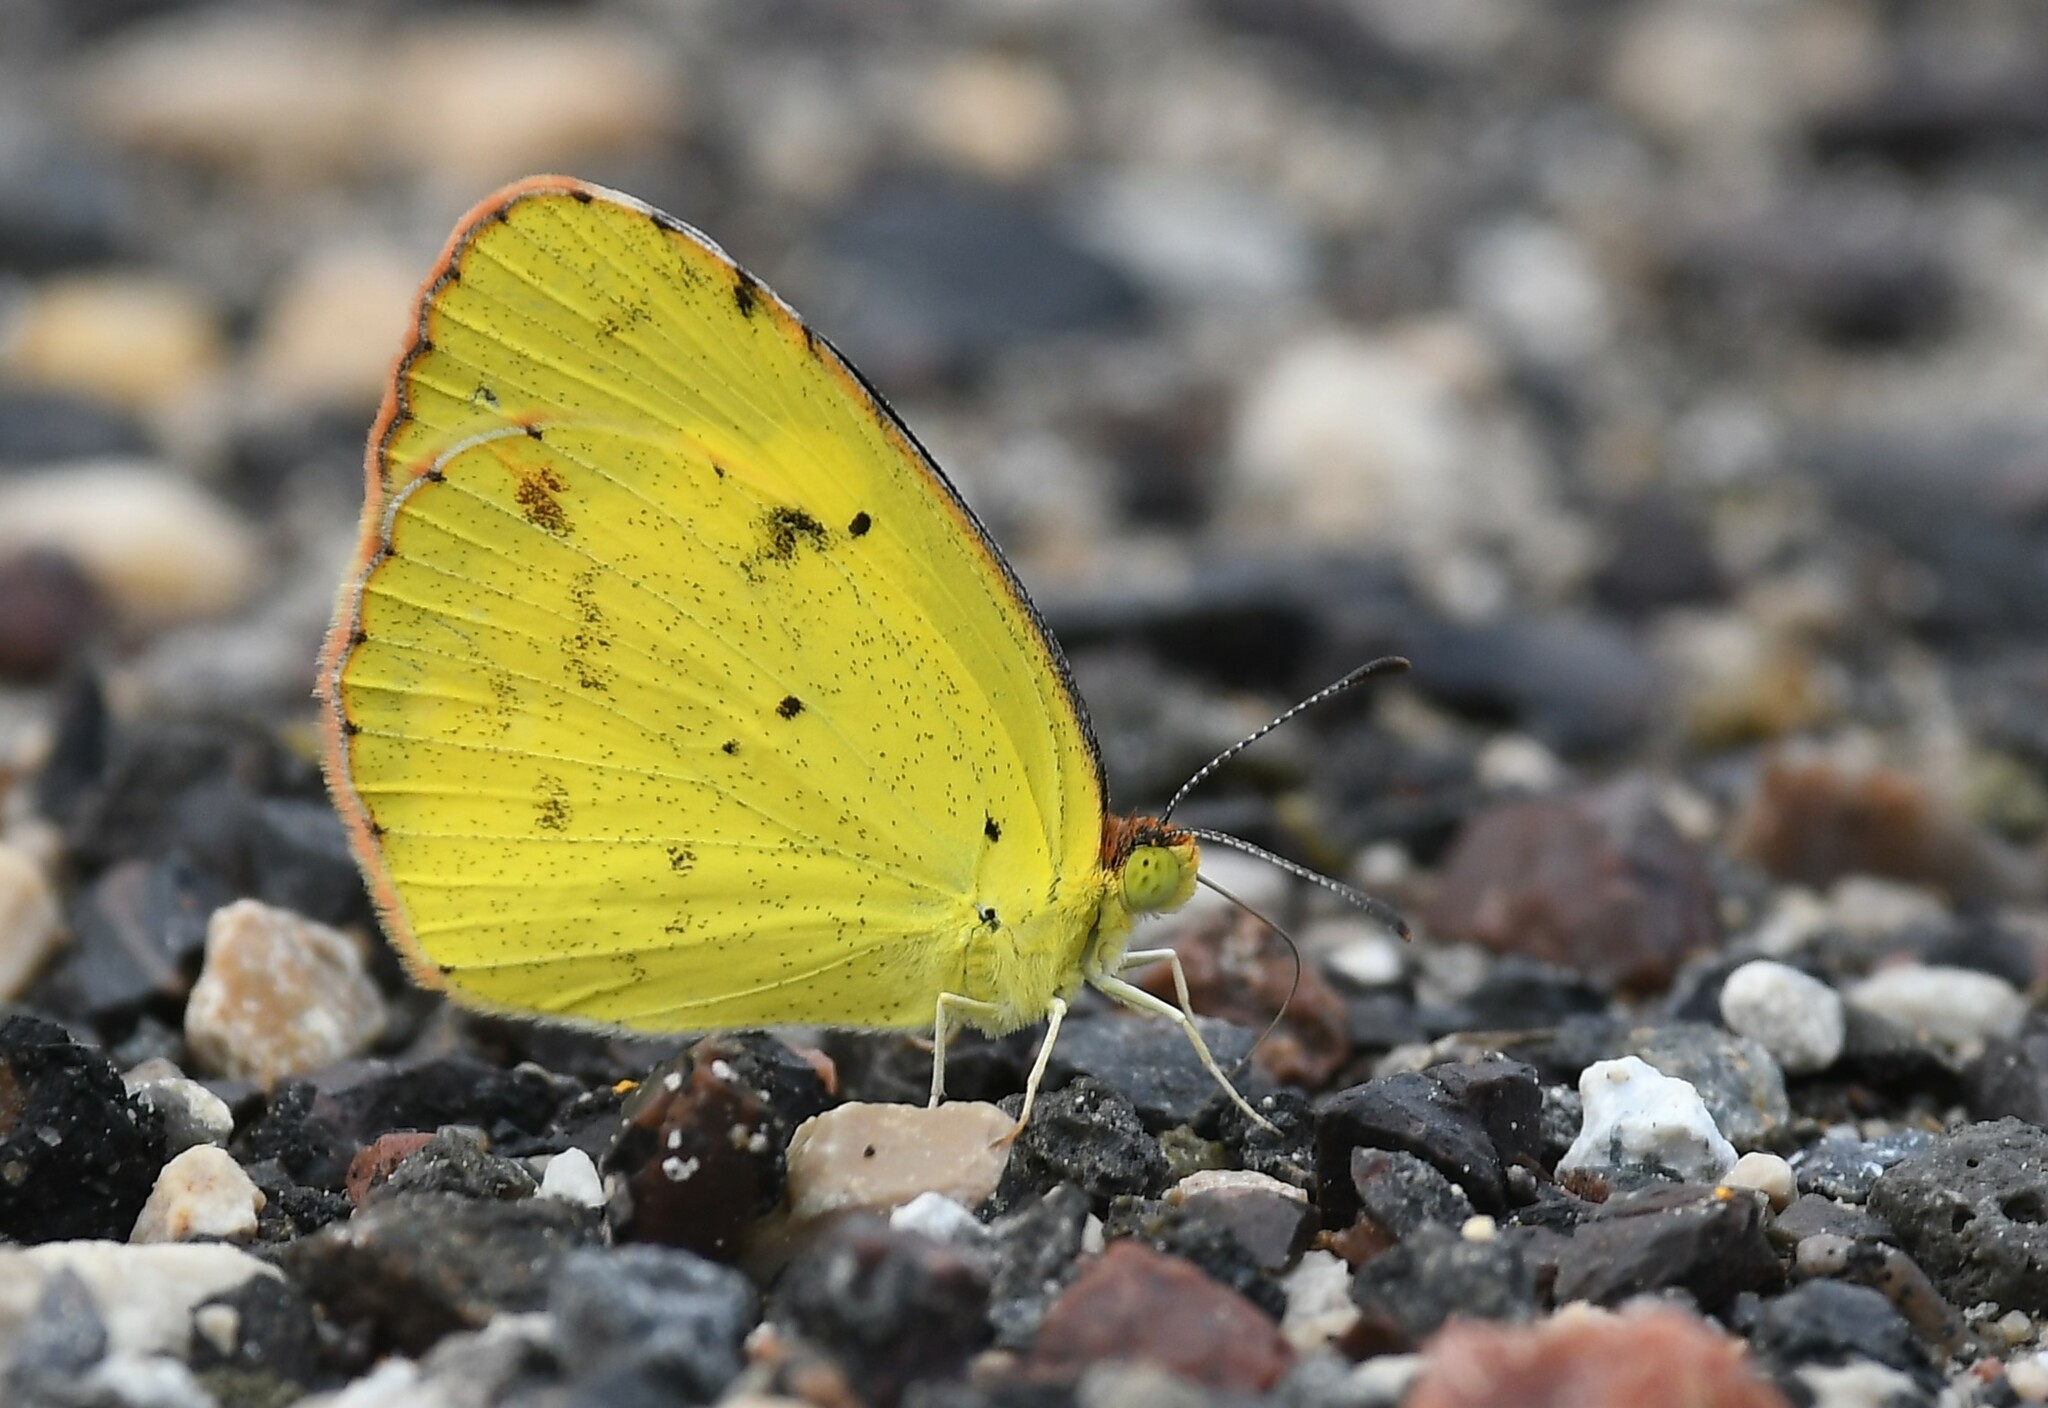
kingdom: Animalia
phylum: Arthropoda
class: Insecta
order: Lepidoptera
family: Pieridae
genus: Pyrisitia
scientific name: Pyrisitia lisa
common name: Little yellow
